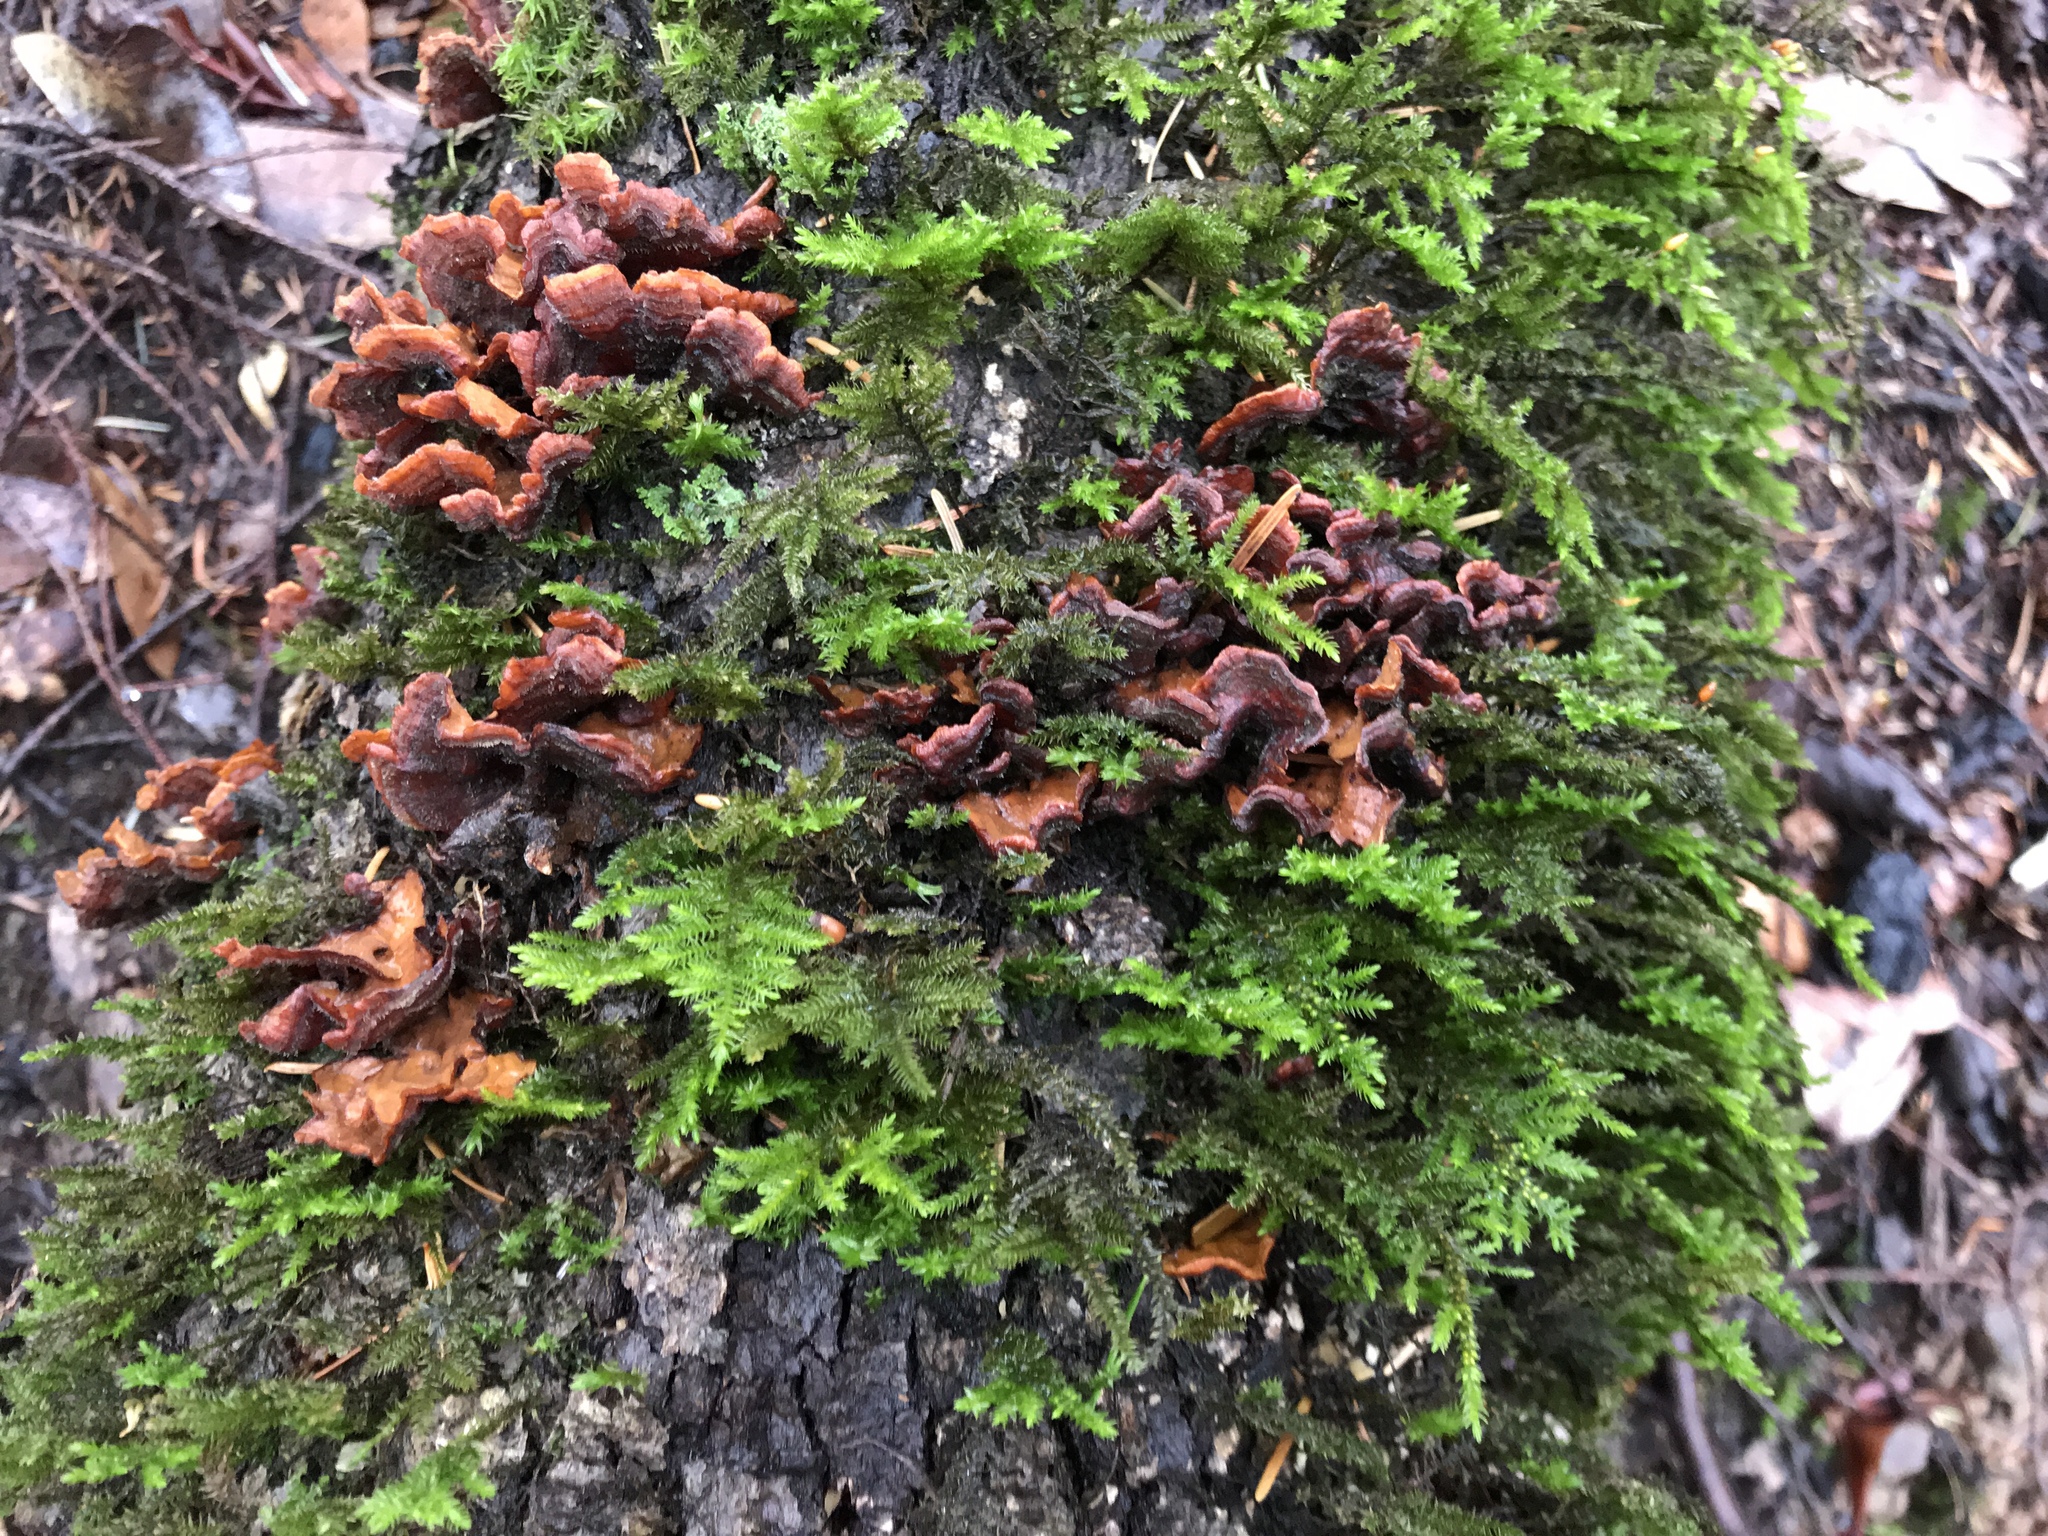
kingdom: Fungi
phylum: Basidiomycota
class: Agaricomycetes
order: Russulales
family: Stereaceae
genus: Stereum
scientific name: Stereum hirsutum
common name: Hairy curtain crust
